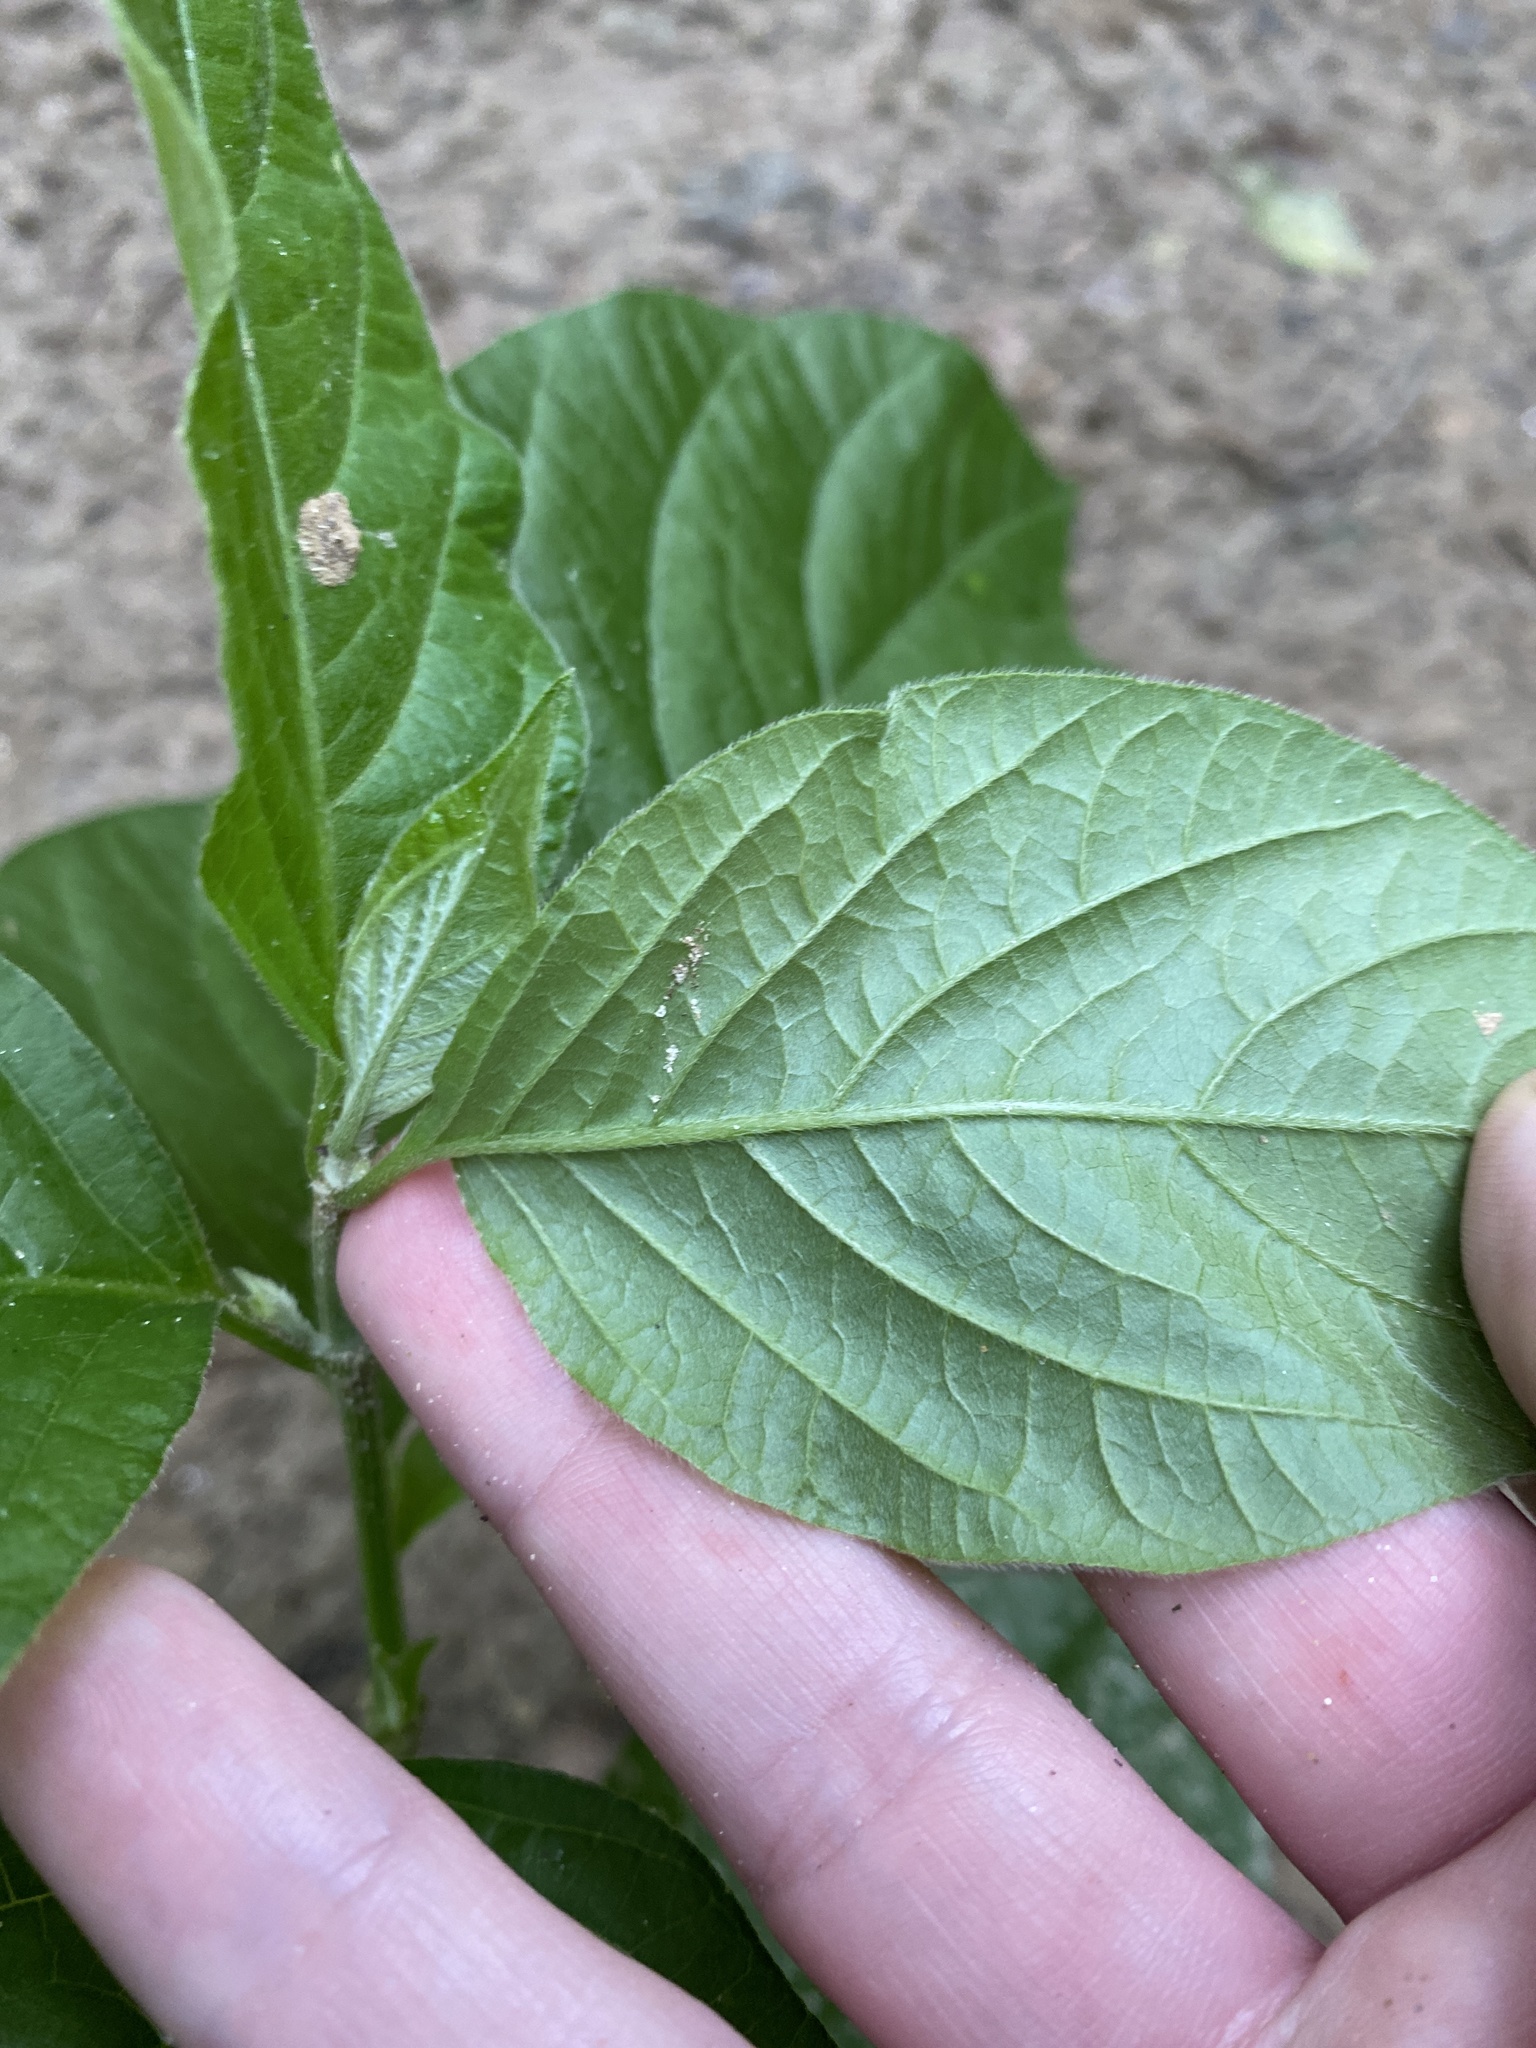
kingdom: Plantae
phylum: Tracheophyta
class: Magnoliopsida
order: Caryophyllales
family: Amaranthaceae
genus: Achyranthes
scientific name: Achyranthes bidentata
